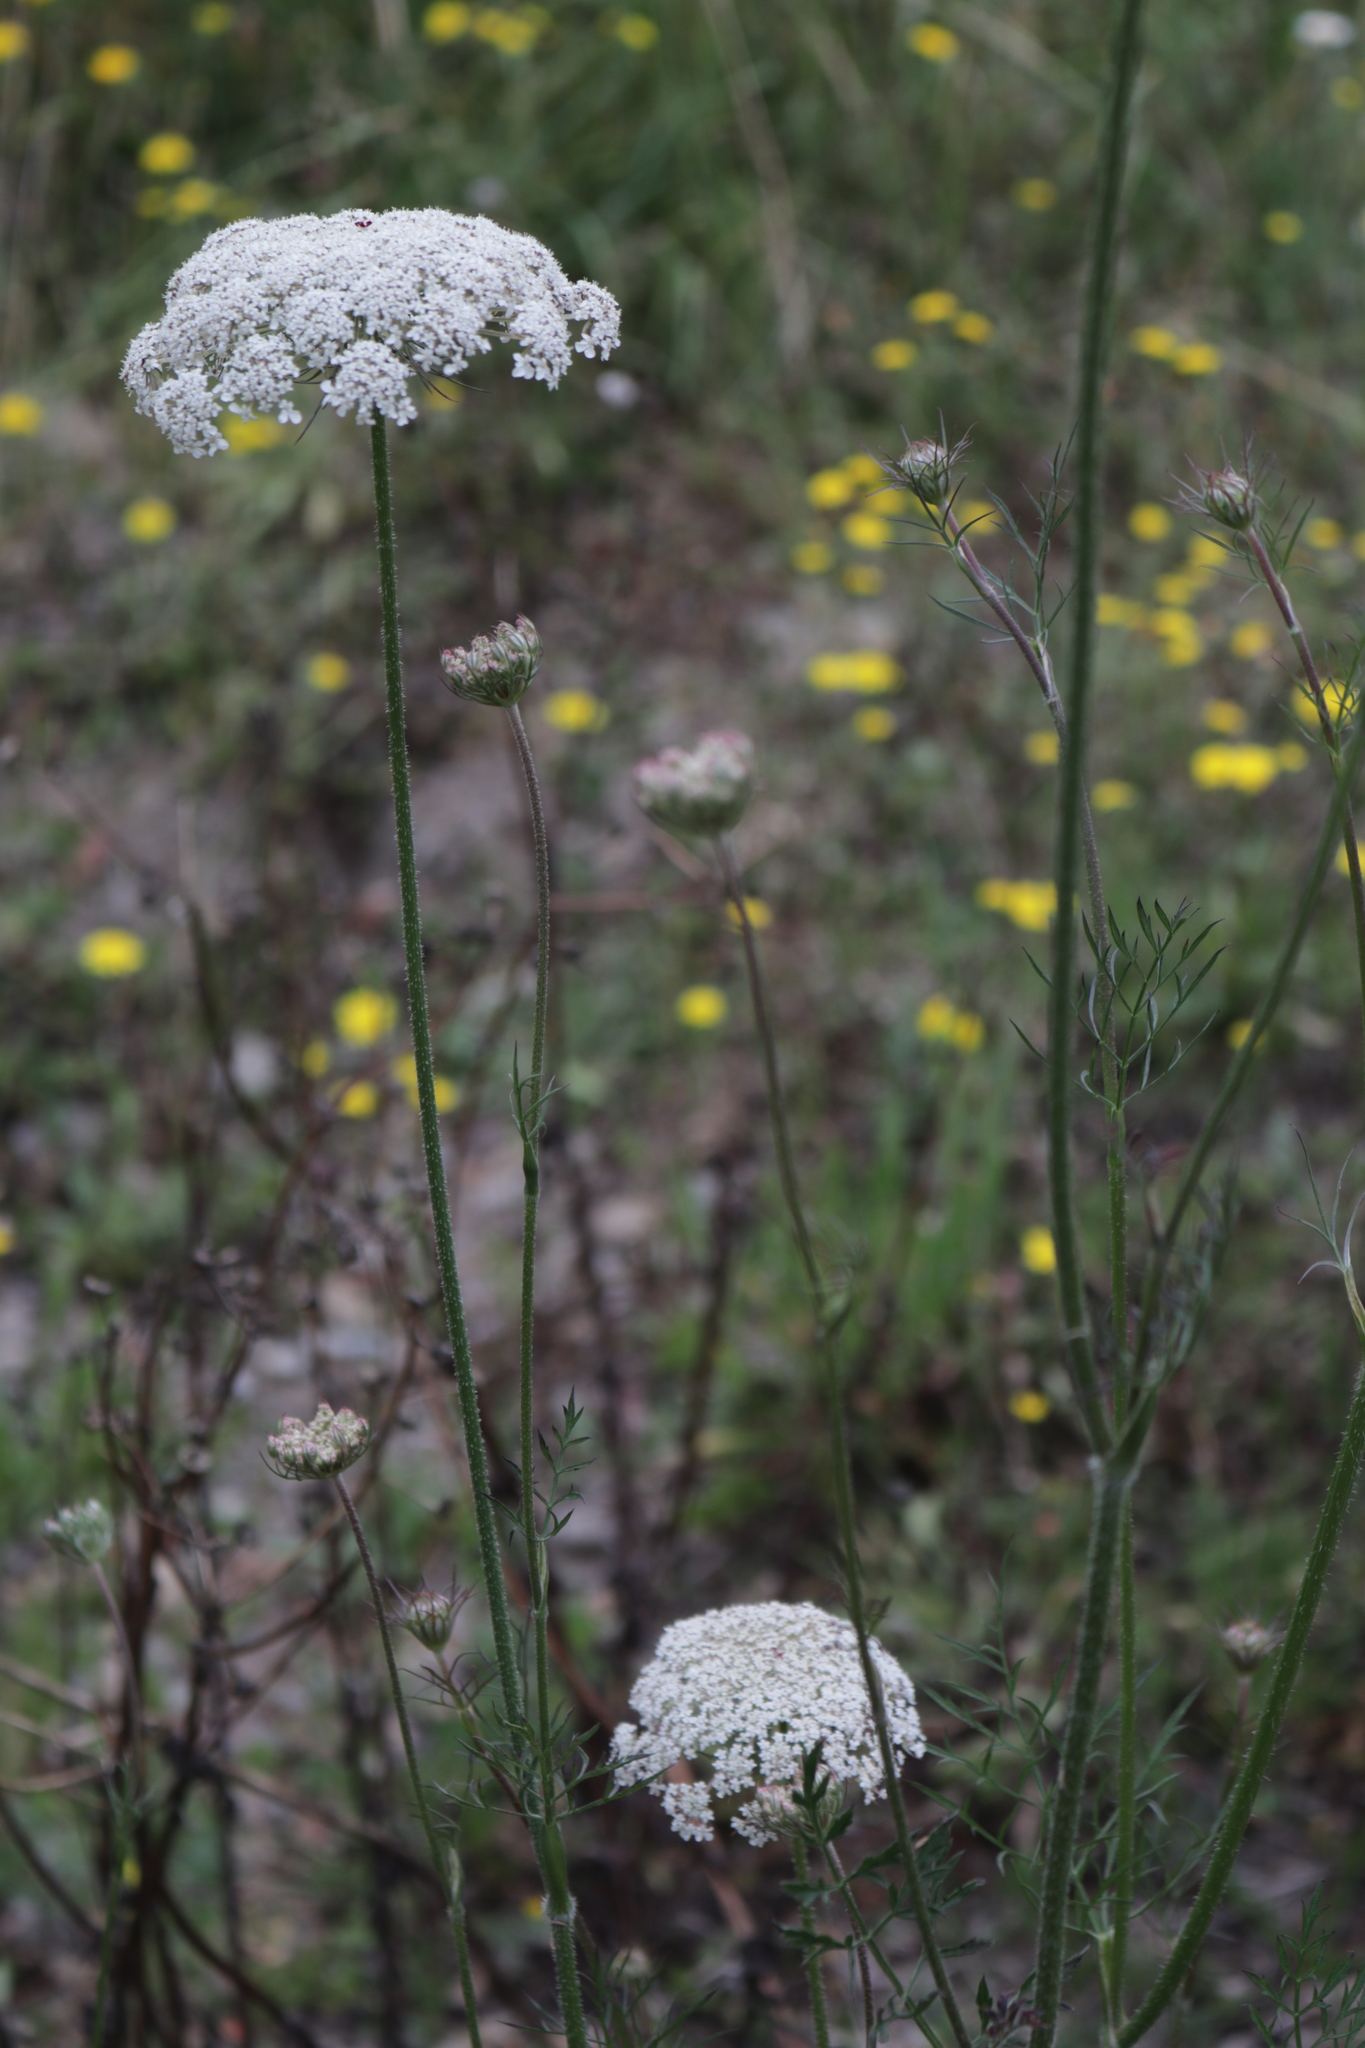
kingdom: Plantae
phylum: Tracheophyta
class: Magnoliopsida
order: Apiales
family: Apiaceae
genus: Daucus
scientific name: Daucus carota
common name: Wild carrot
